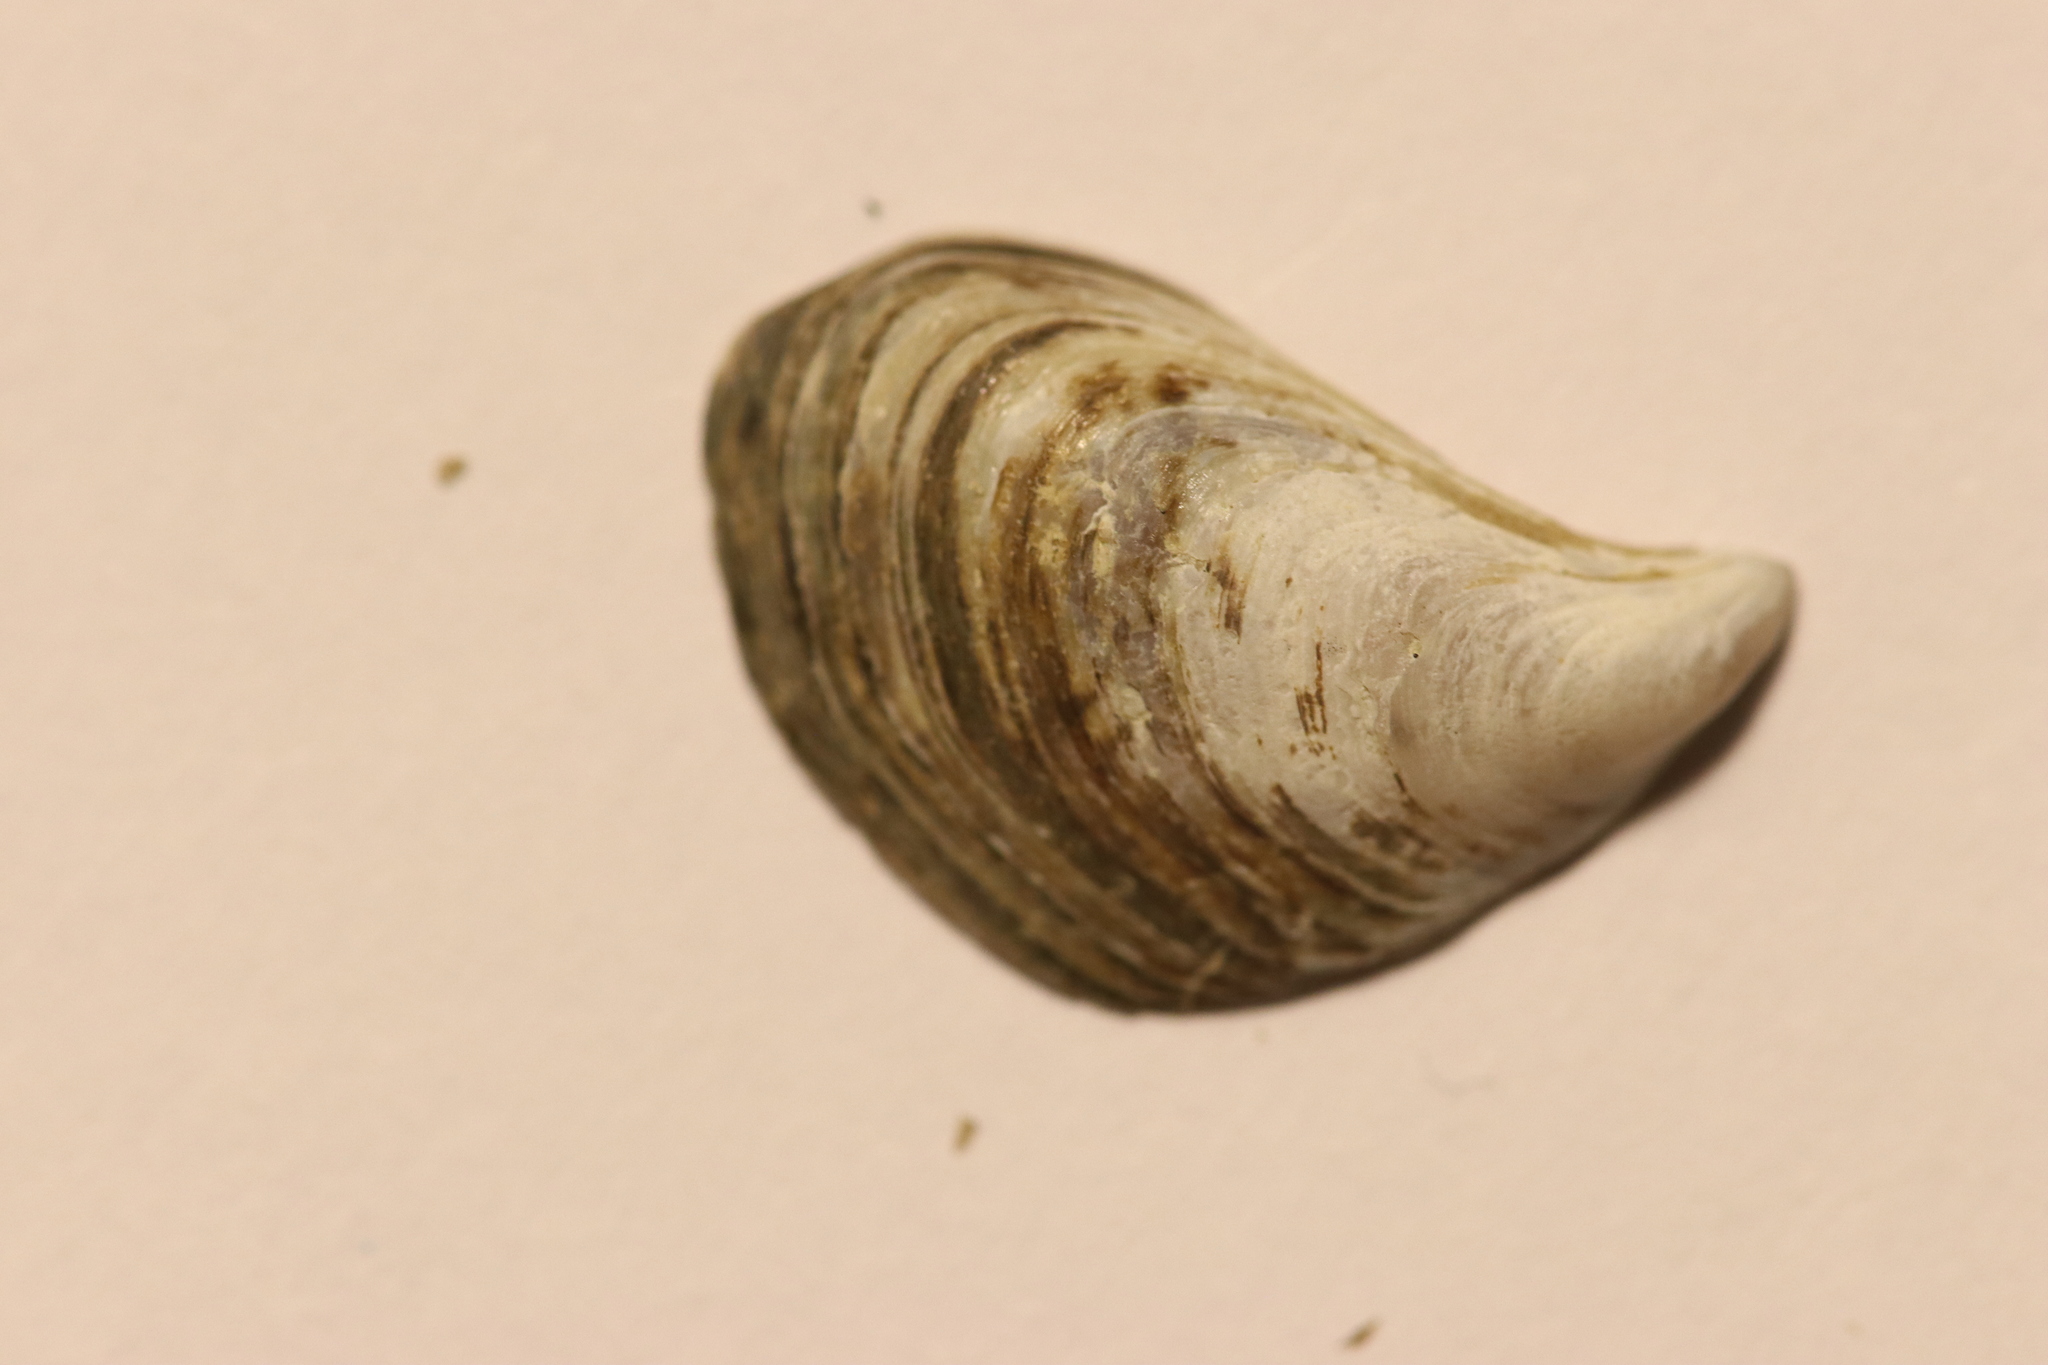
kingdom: Animalia
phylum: Mollusca
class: Bivalvia
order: Myida
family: Dreissenidae
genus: Dreissena
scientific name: Dreissena bugensis
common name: Quagga mussel
